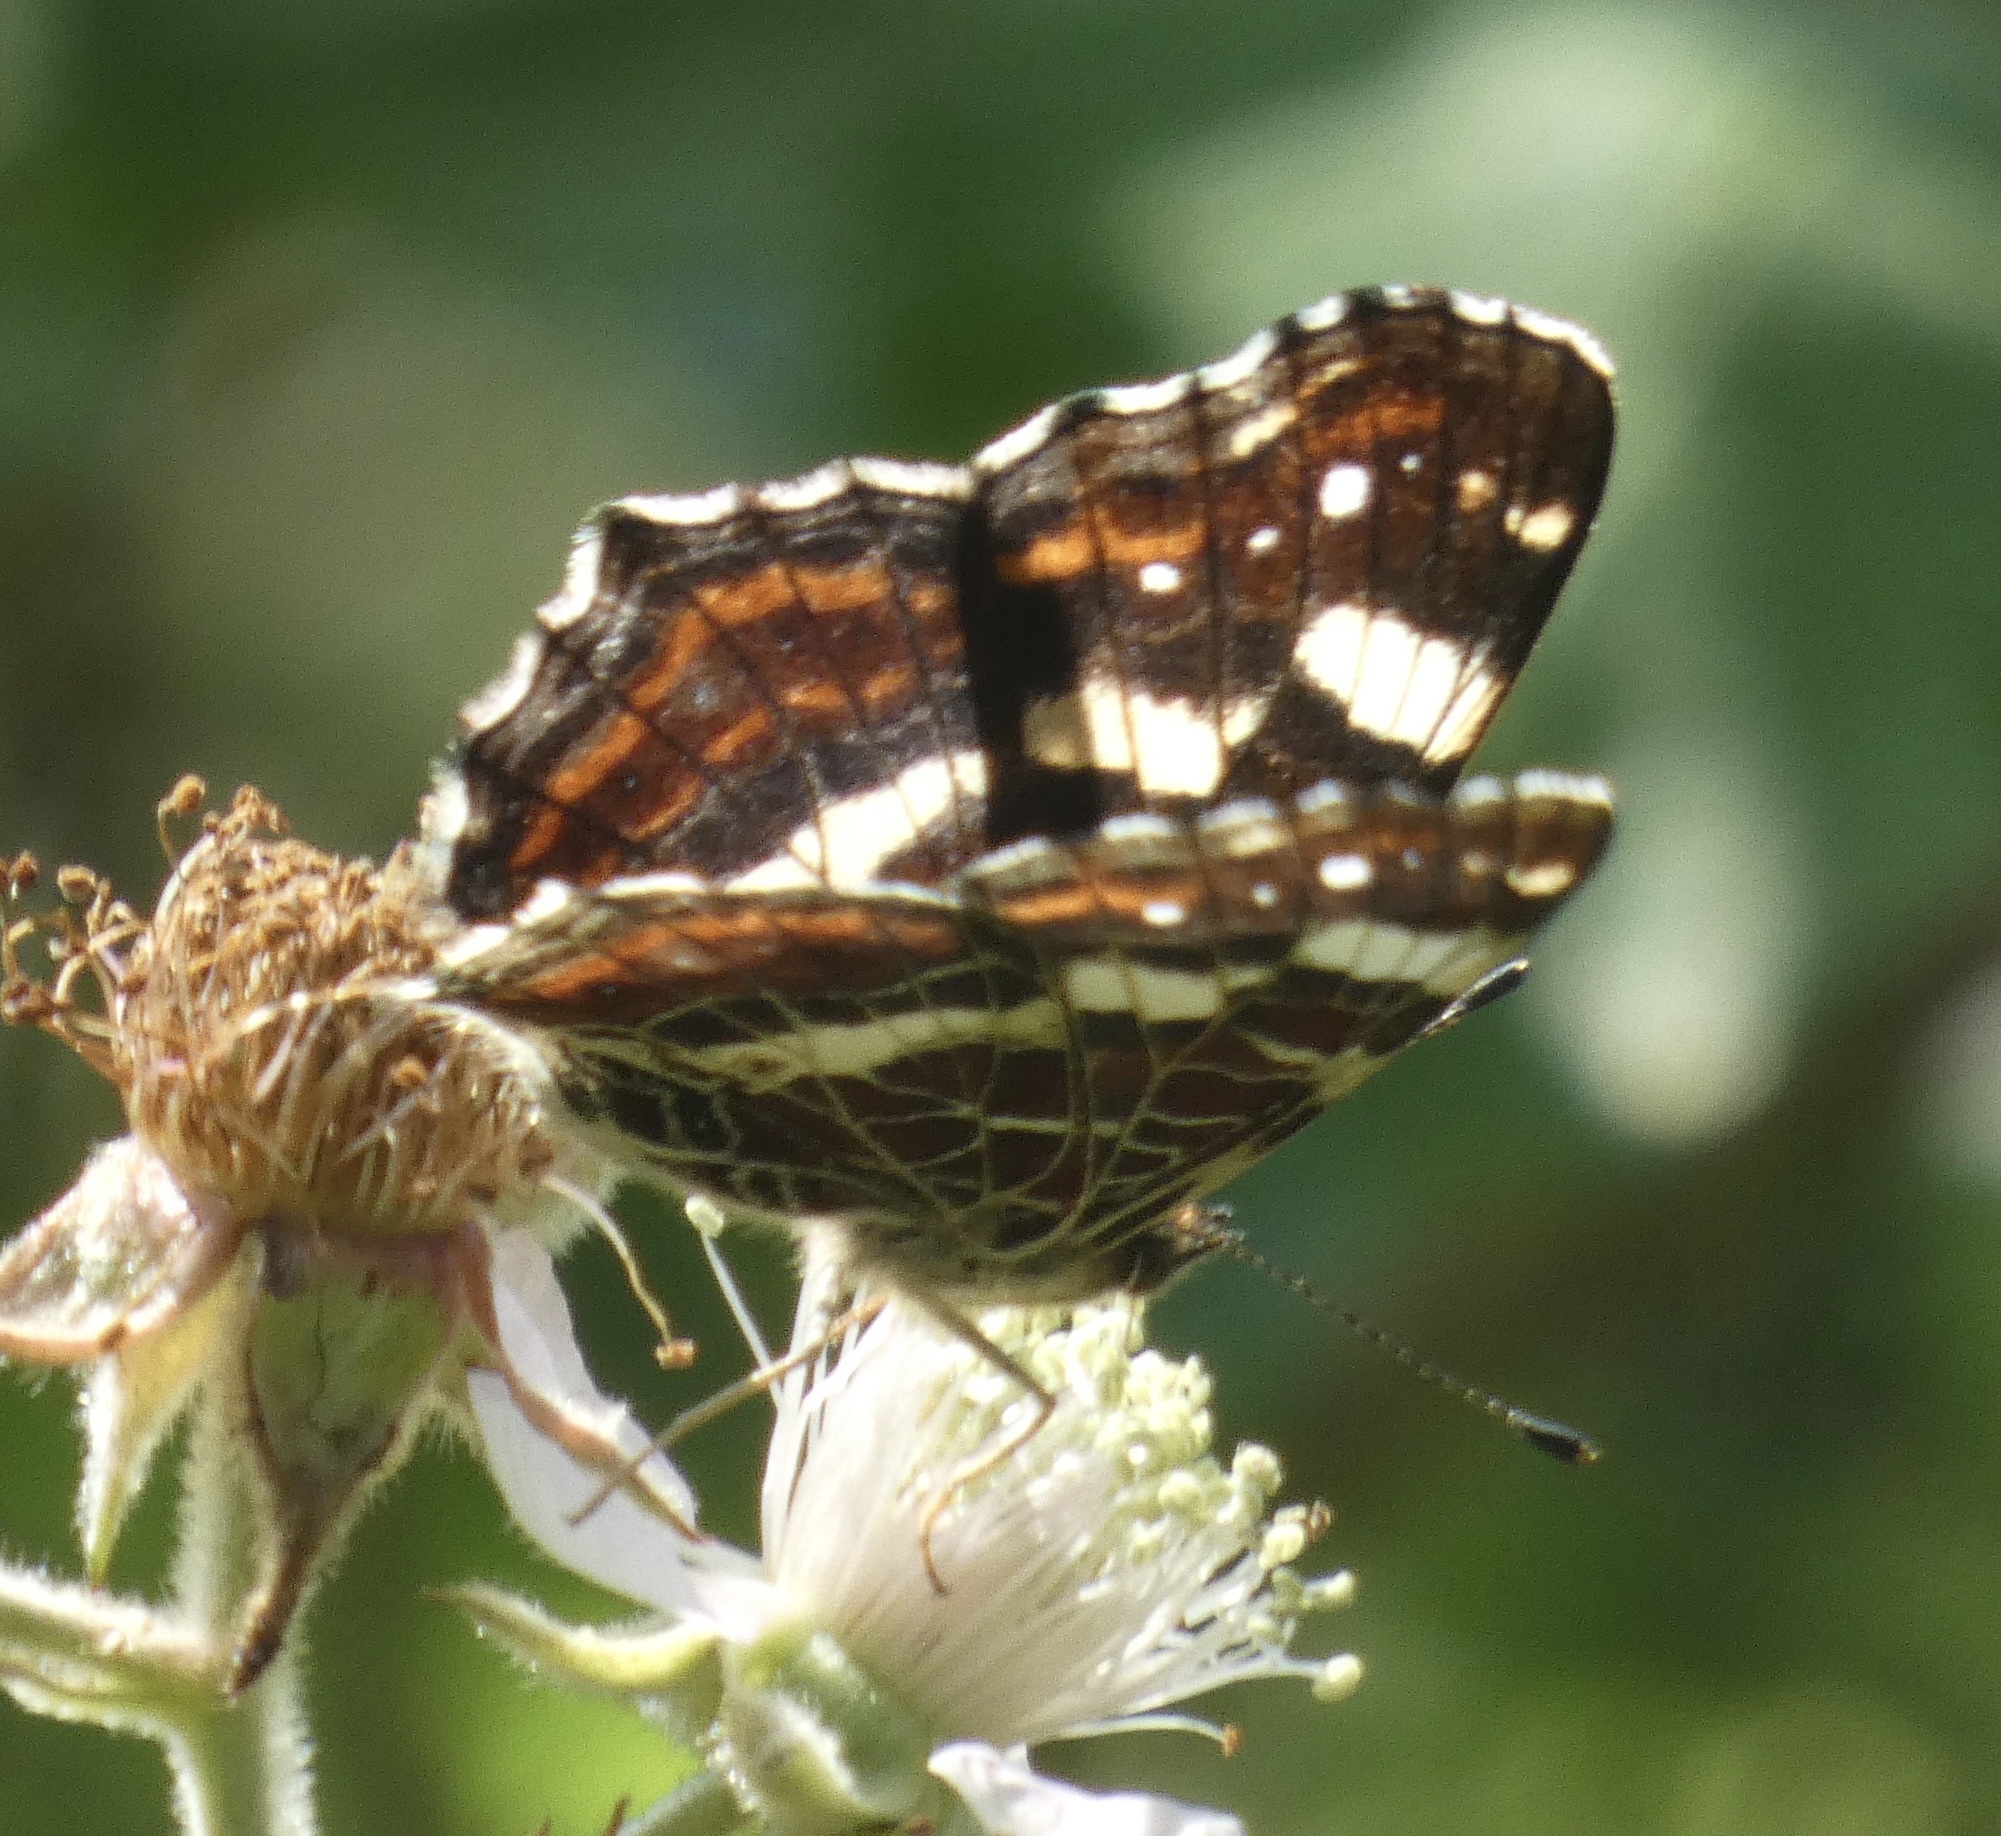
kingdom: Animalia
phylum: Arthropoda
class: Insecta
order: Lepidoptera
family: Nymphalidae
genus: Araschnia
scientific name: Araschnia levana
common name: Map butterfly
